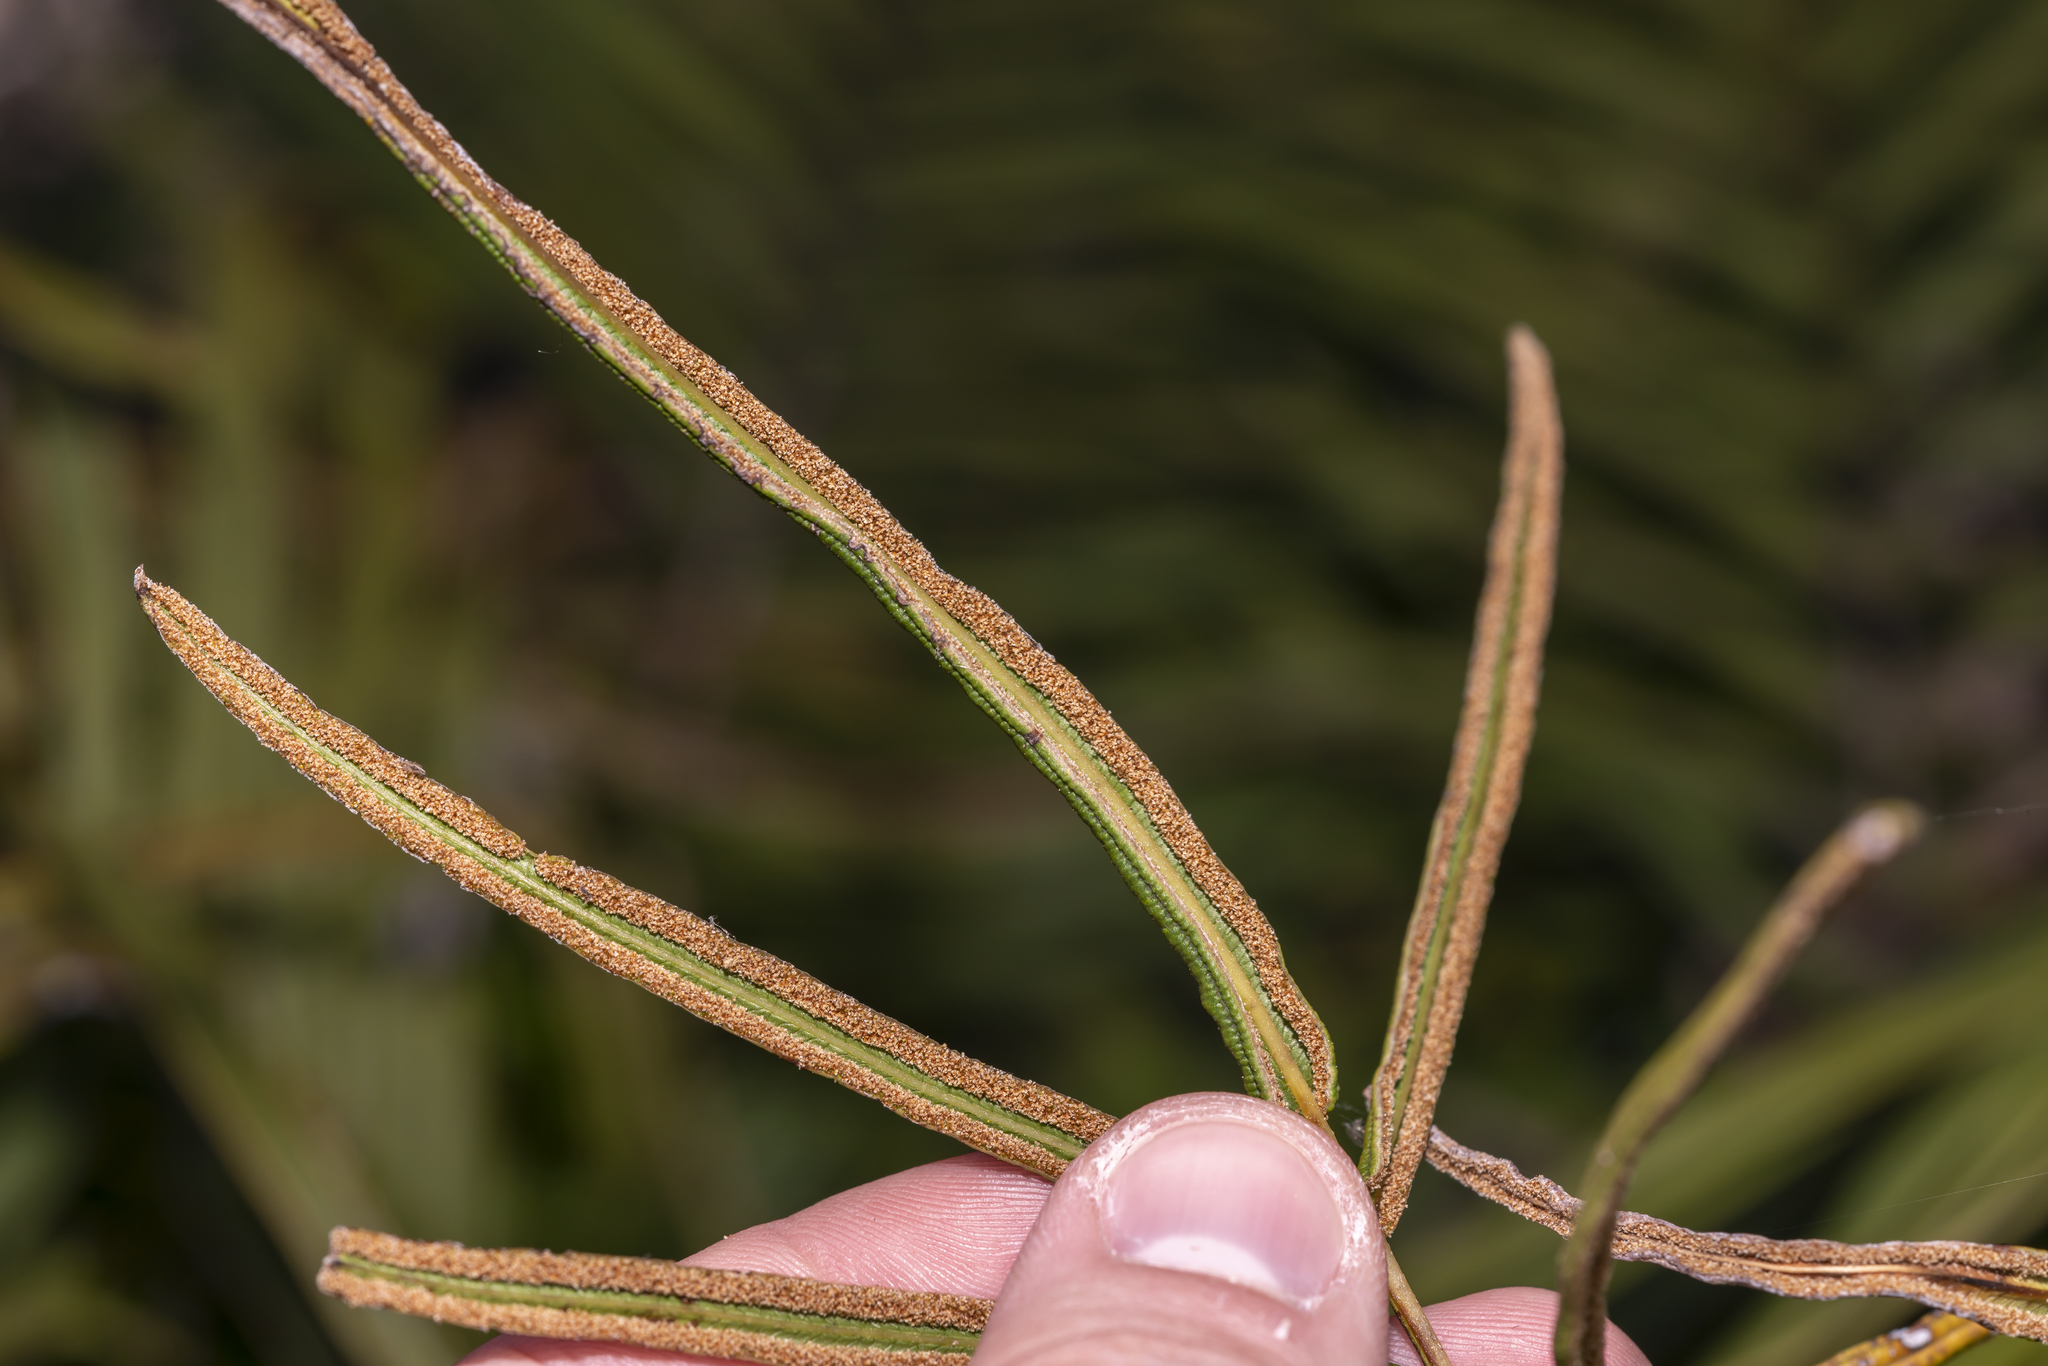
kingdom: Plantae
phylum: Tracheophyta
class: Polypodiopsida
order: Polypodiales
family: Pteridaceae
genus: Pteris
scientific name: Pteris vittata
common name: Ladder brake
